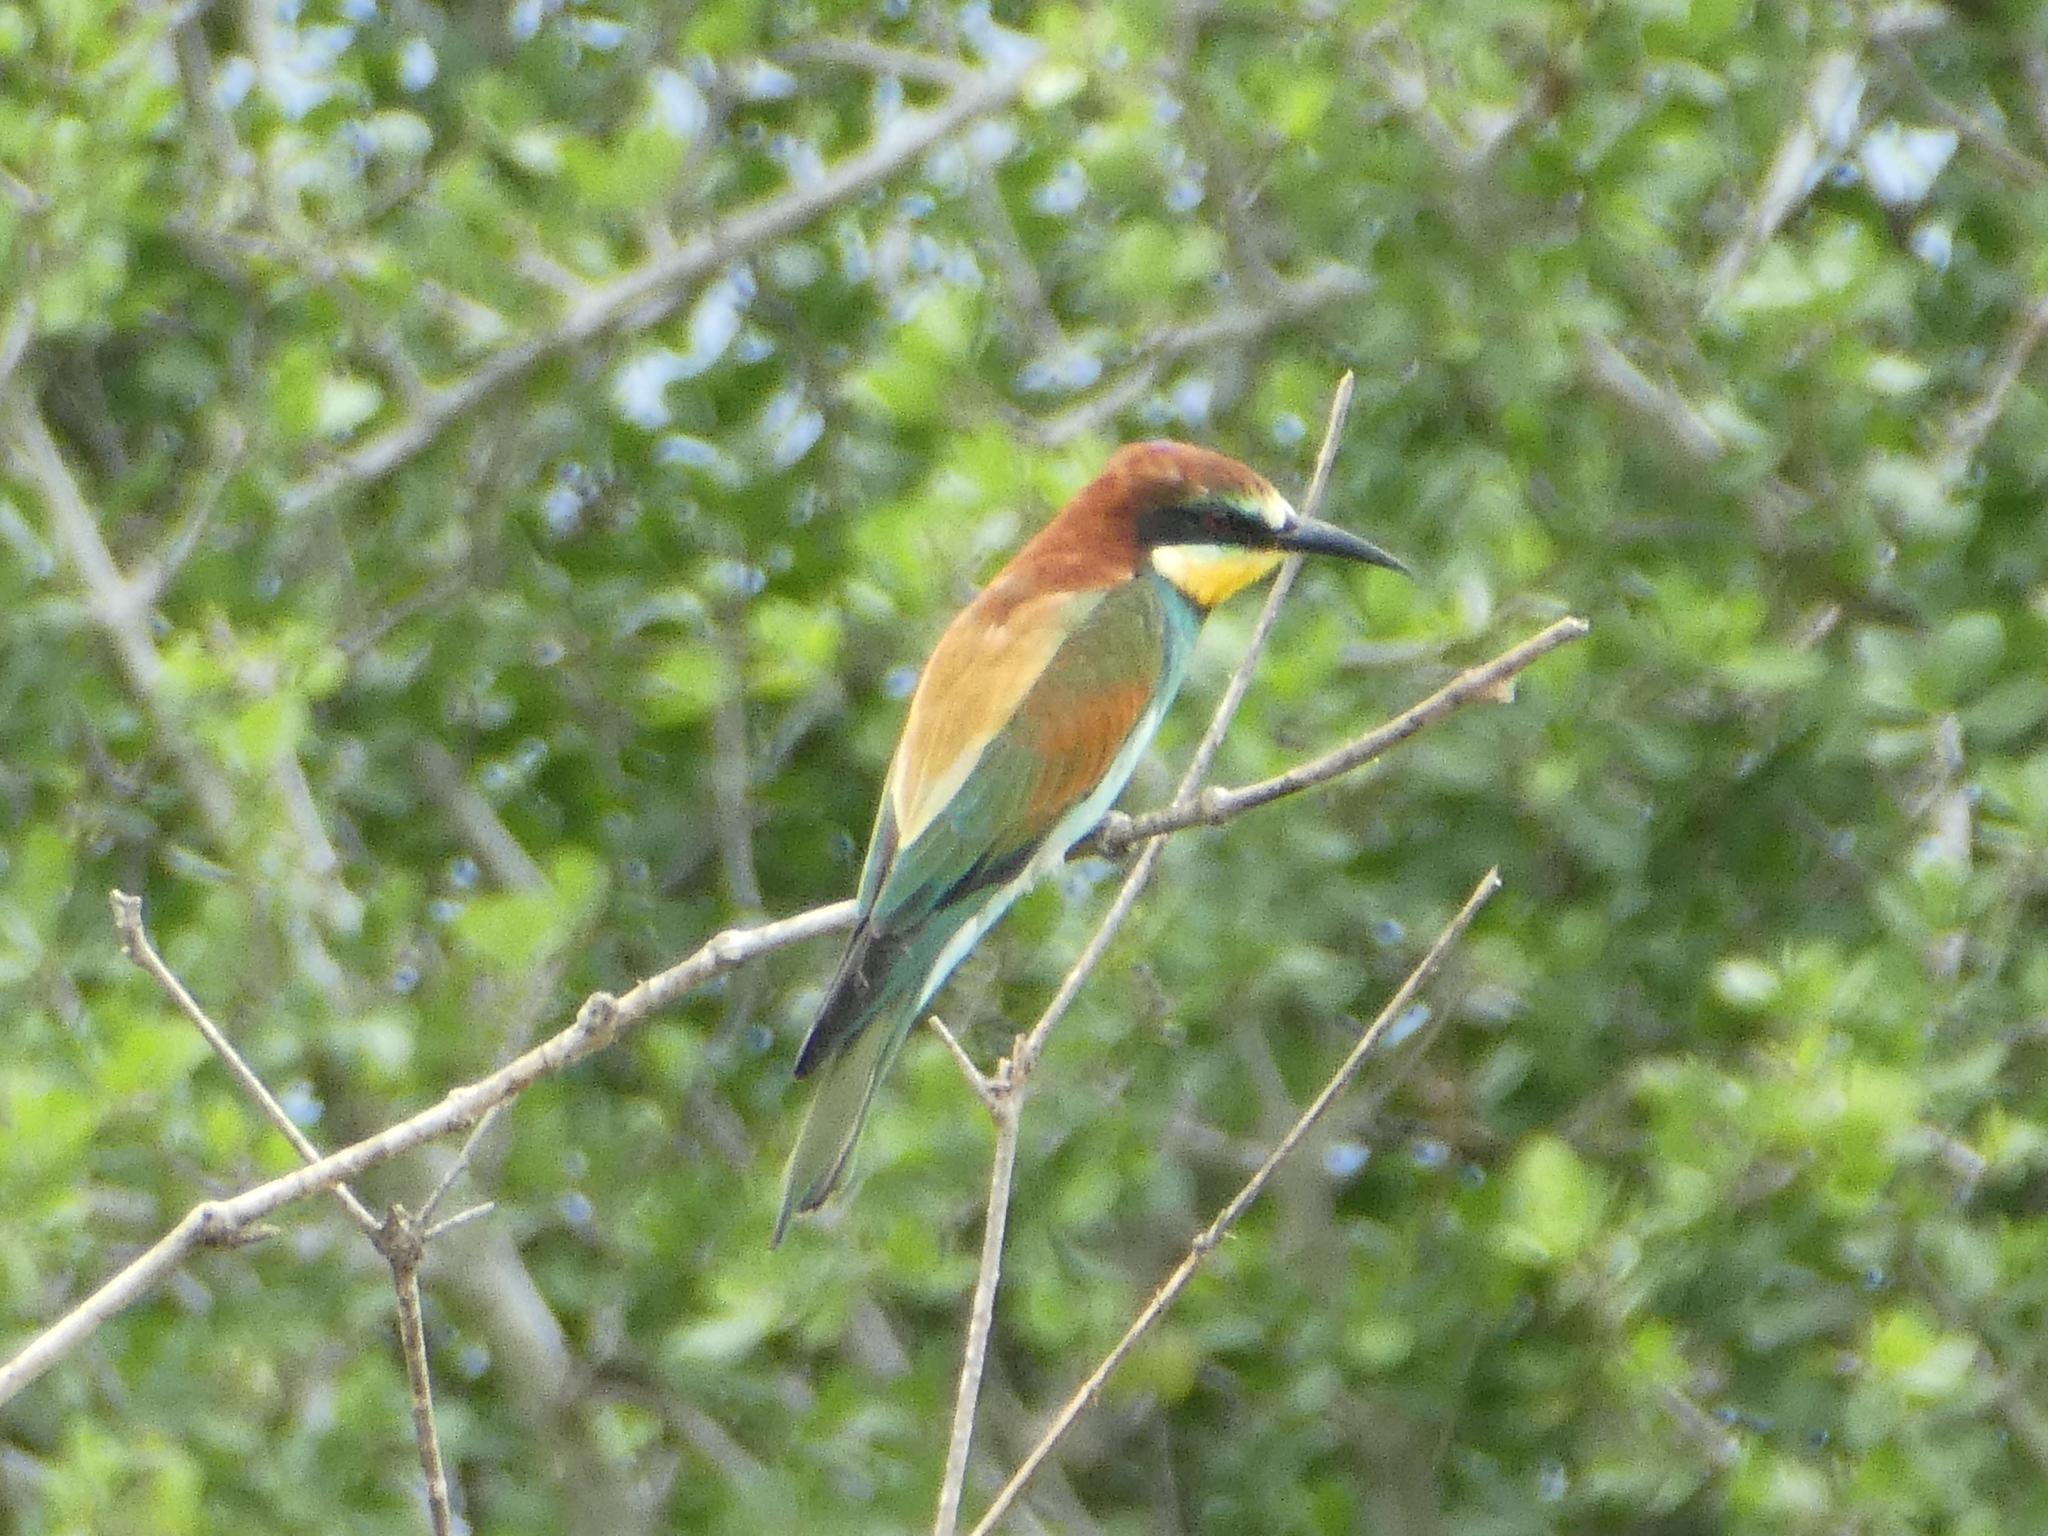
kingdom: Animalia
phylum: Chordata
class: Aves
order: Coraciiformes
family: Meropidae
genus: Merops
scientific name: Merops apiaster
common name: European bee-eater
